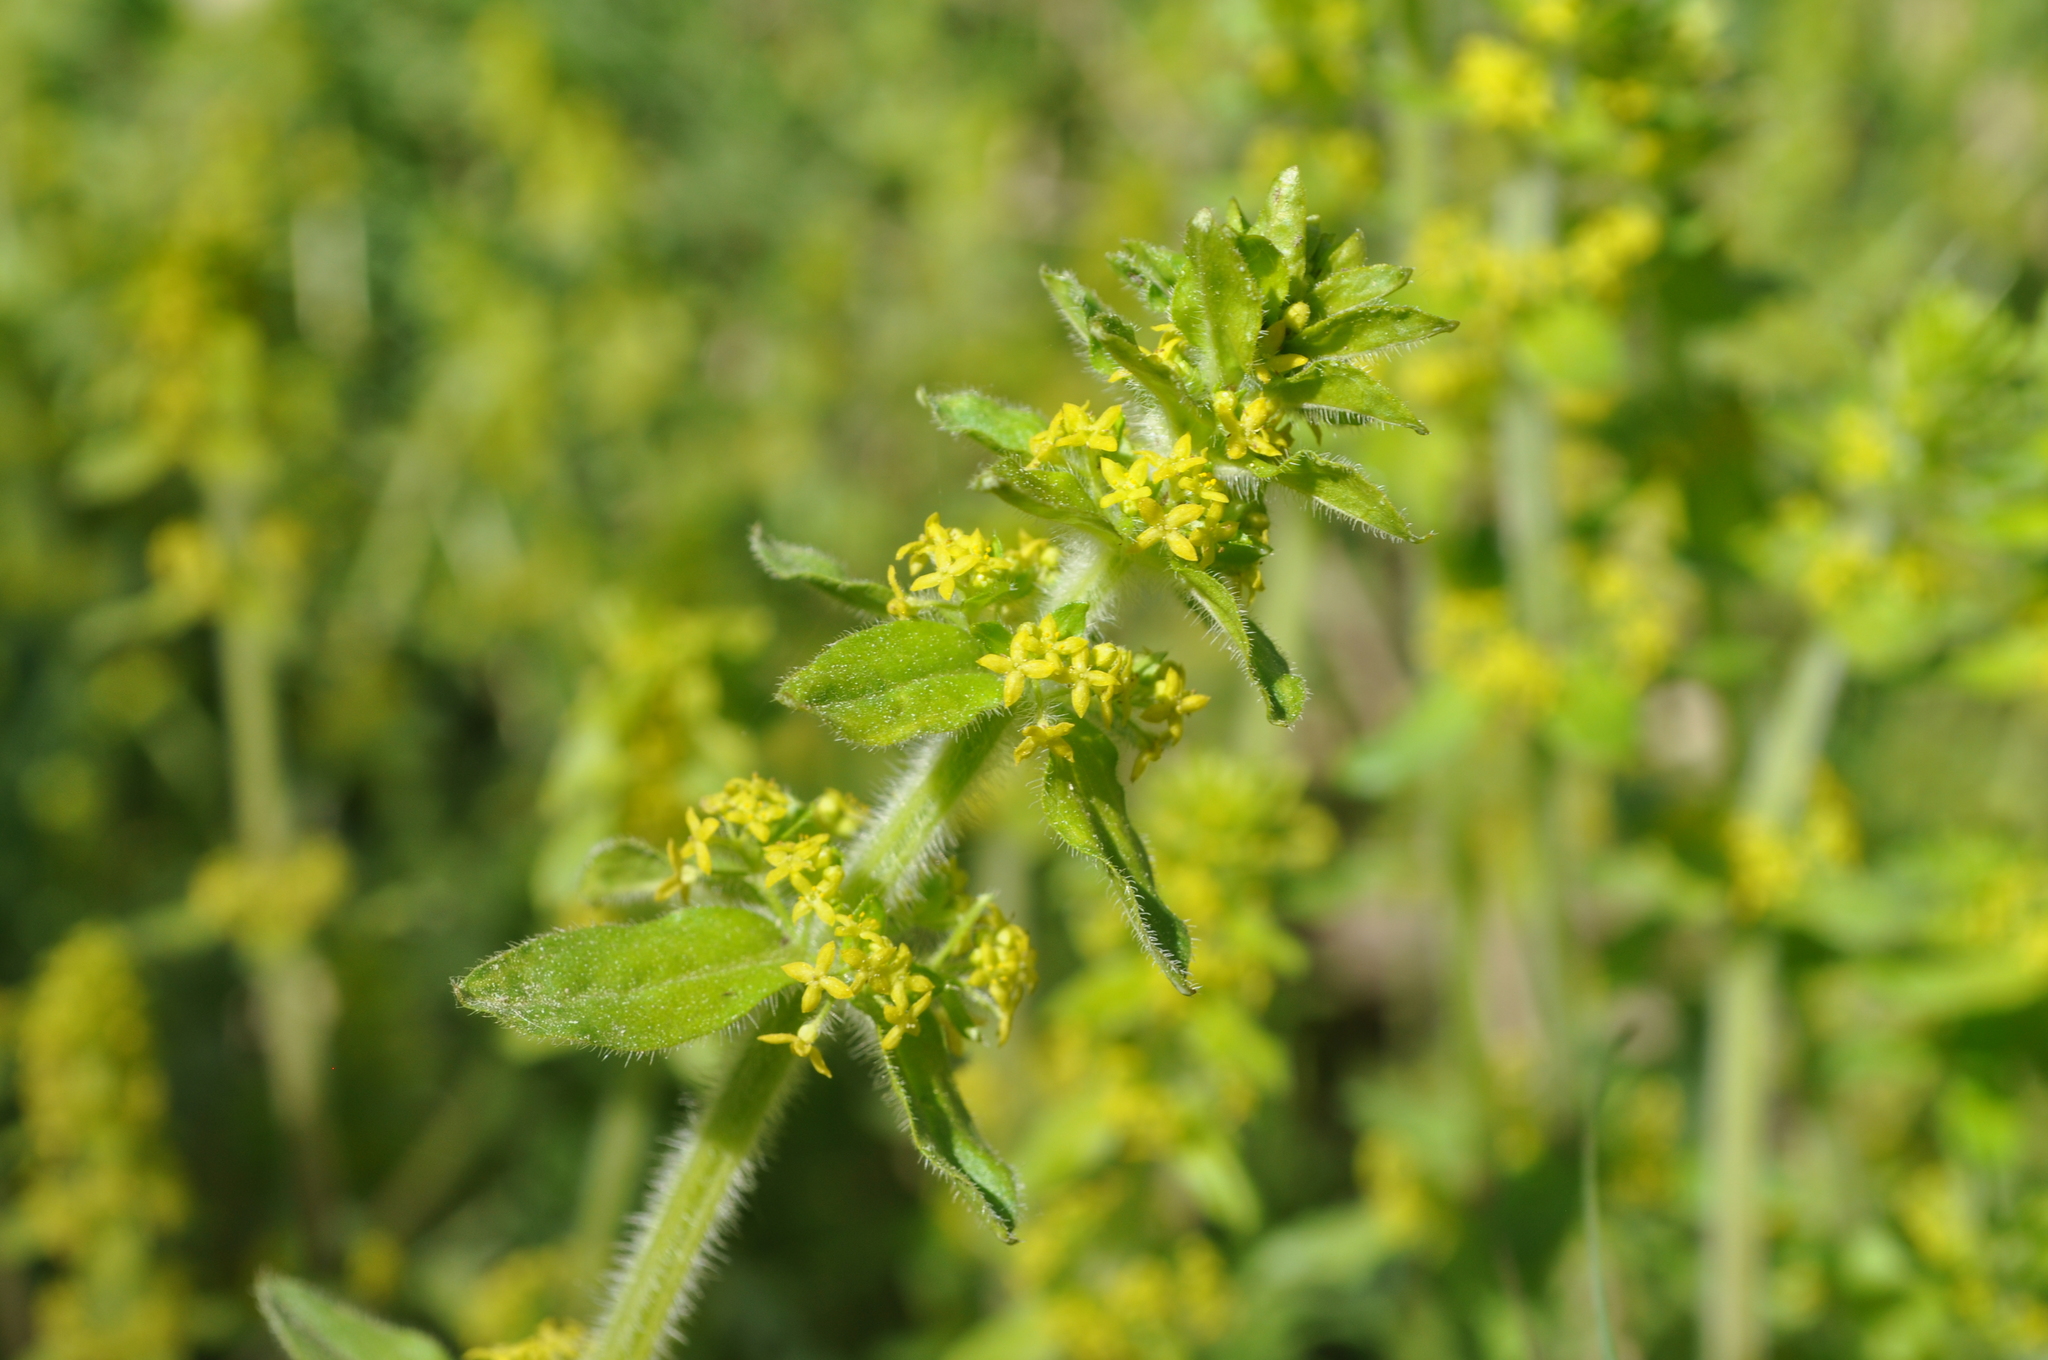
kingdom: Plantae
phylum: Tracheophyta
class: Magnoliopsida
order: Gentianales
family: Rubiaceae
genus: Cruciata
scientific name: Cruciata laevipes
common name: Crosswort
